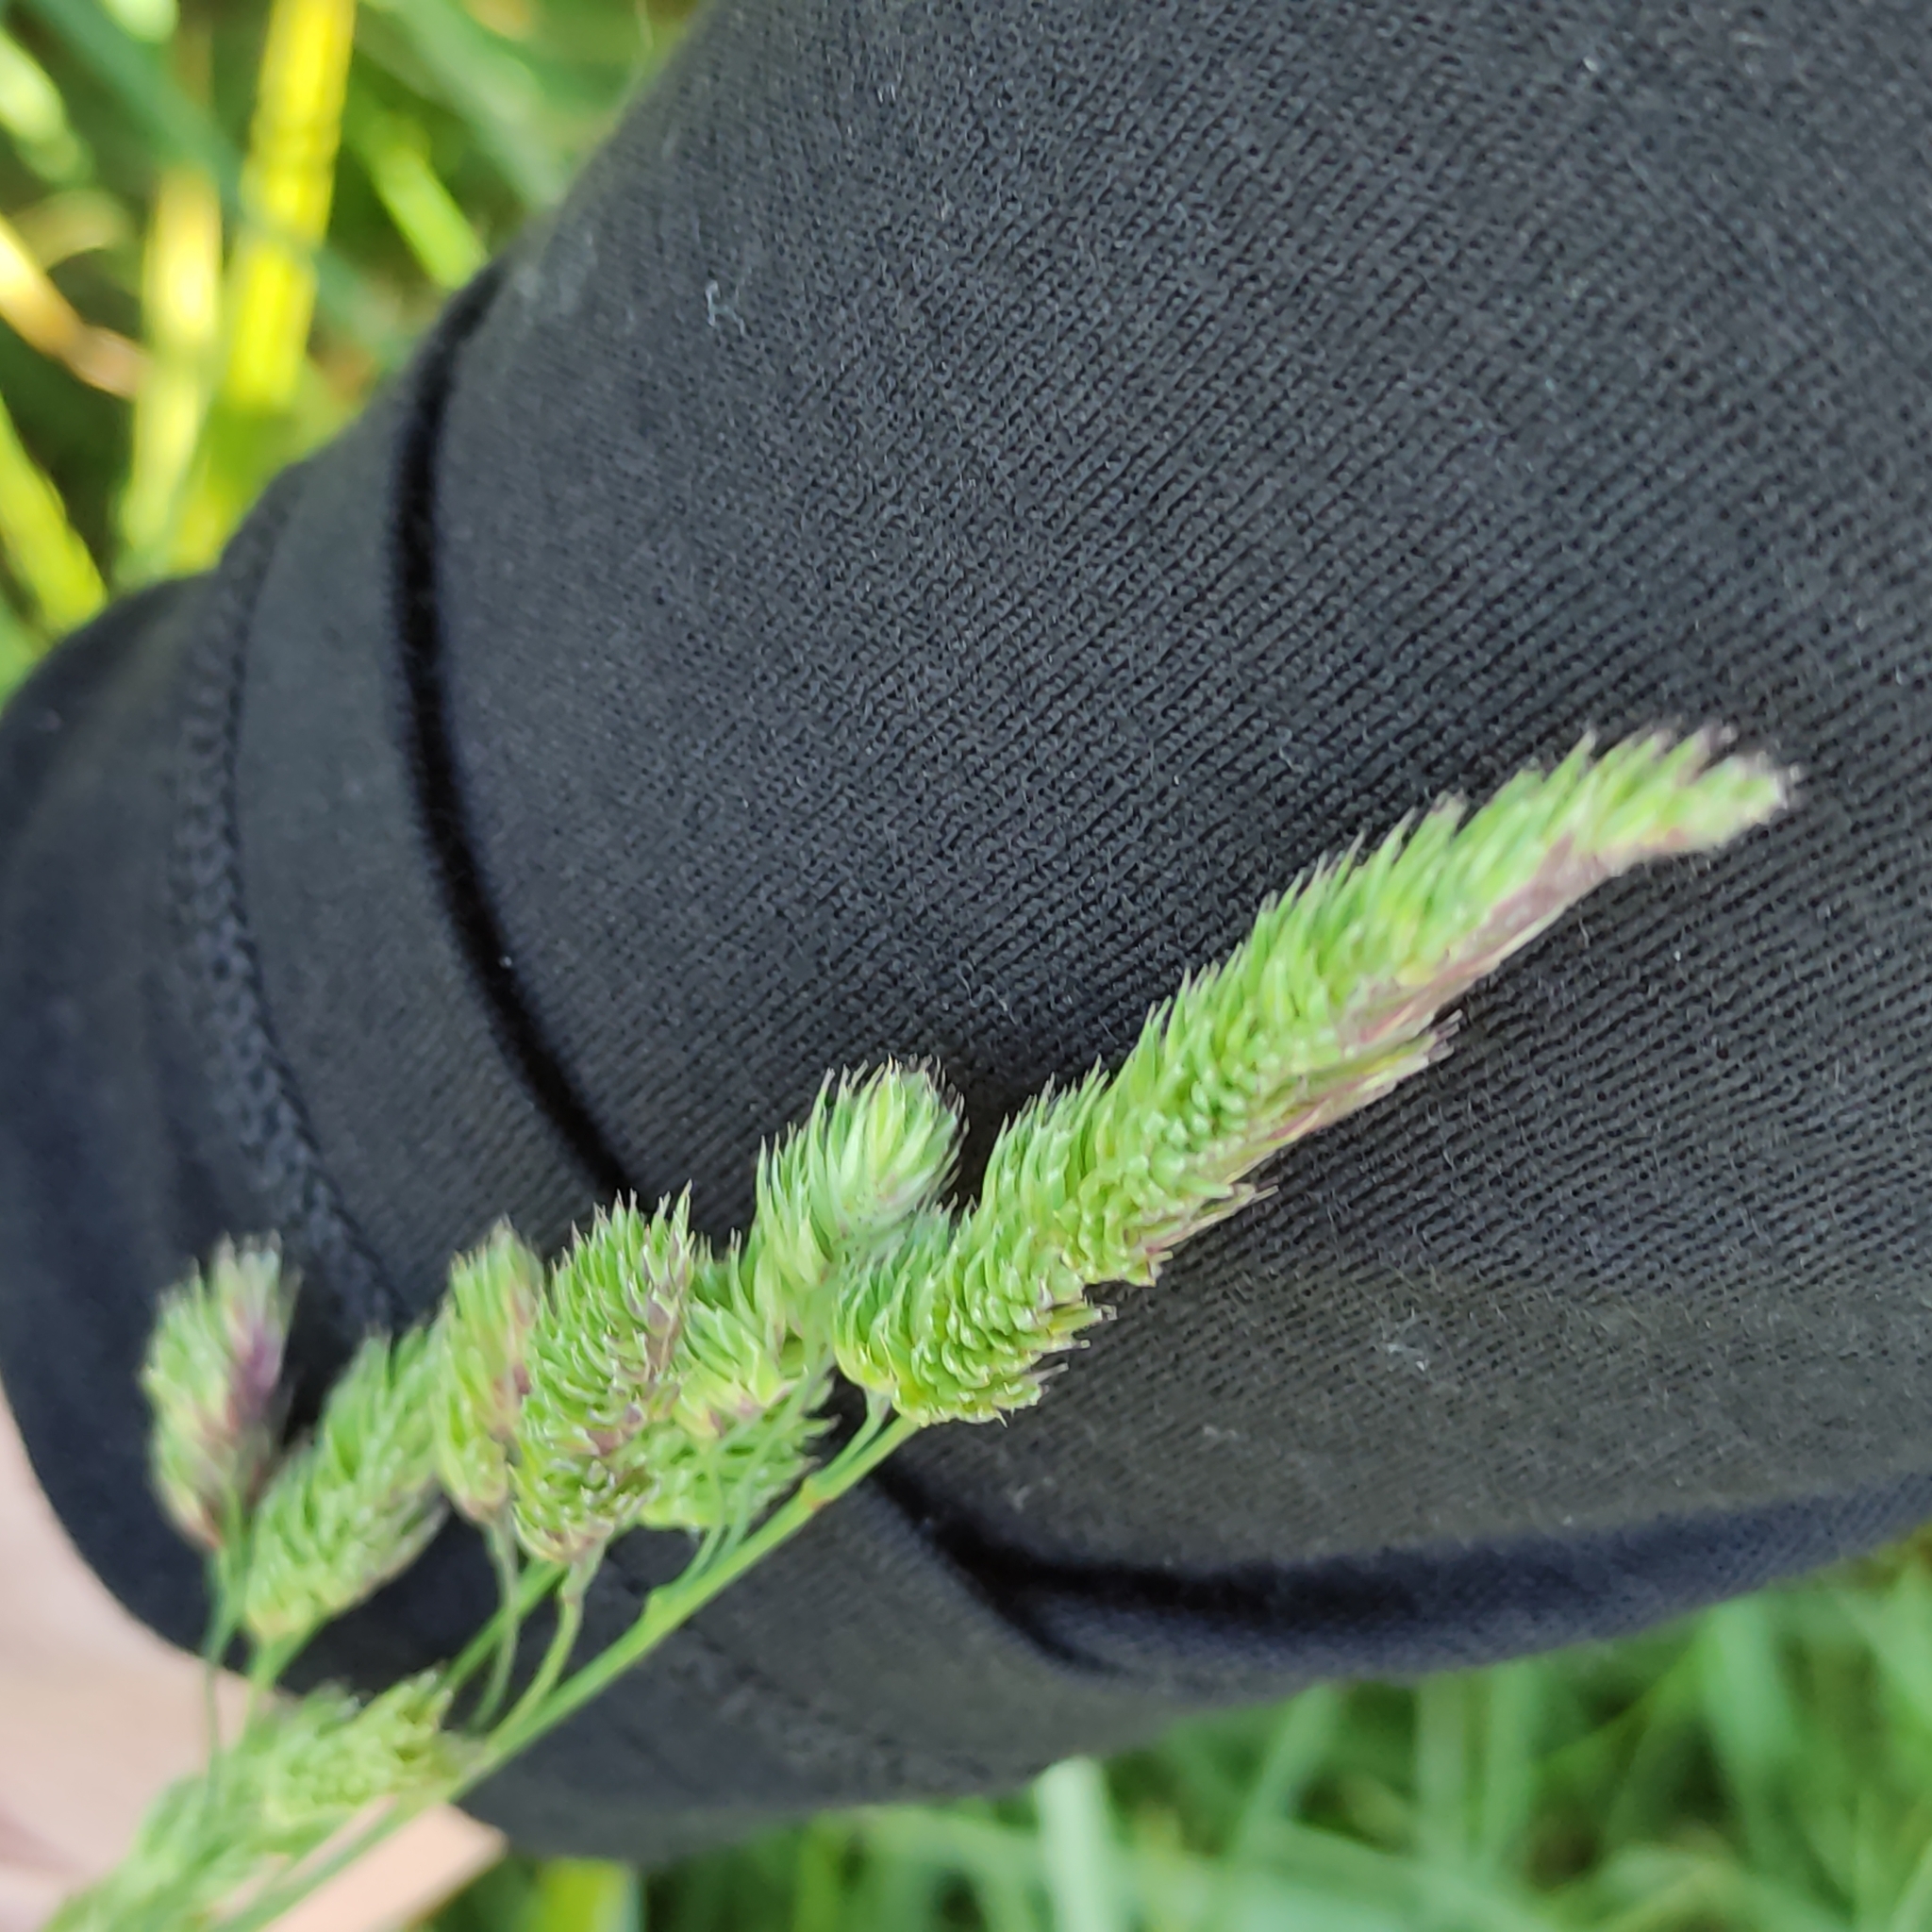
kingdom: Plantae
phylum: Tracheophyta
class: Liliopsida
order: Poales
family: Poaceae
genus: Dactylis
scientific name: Dactylis glomerata
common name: Orchardgrass
